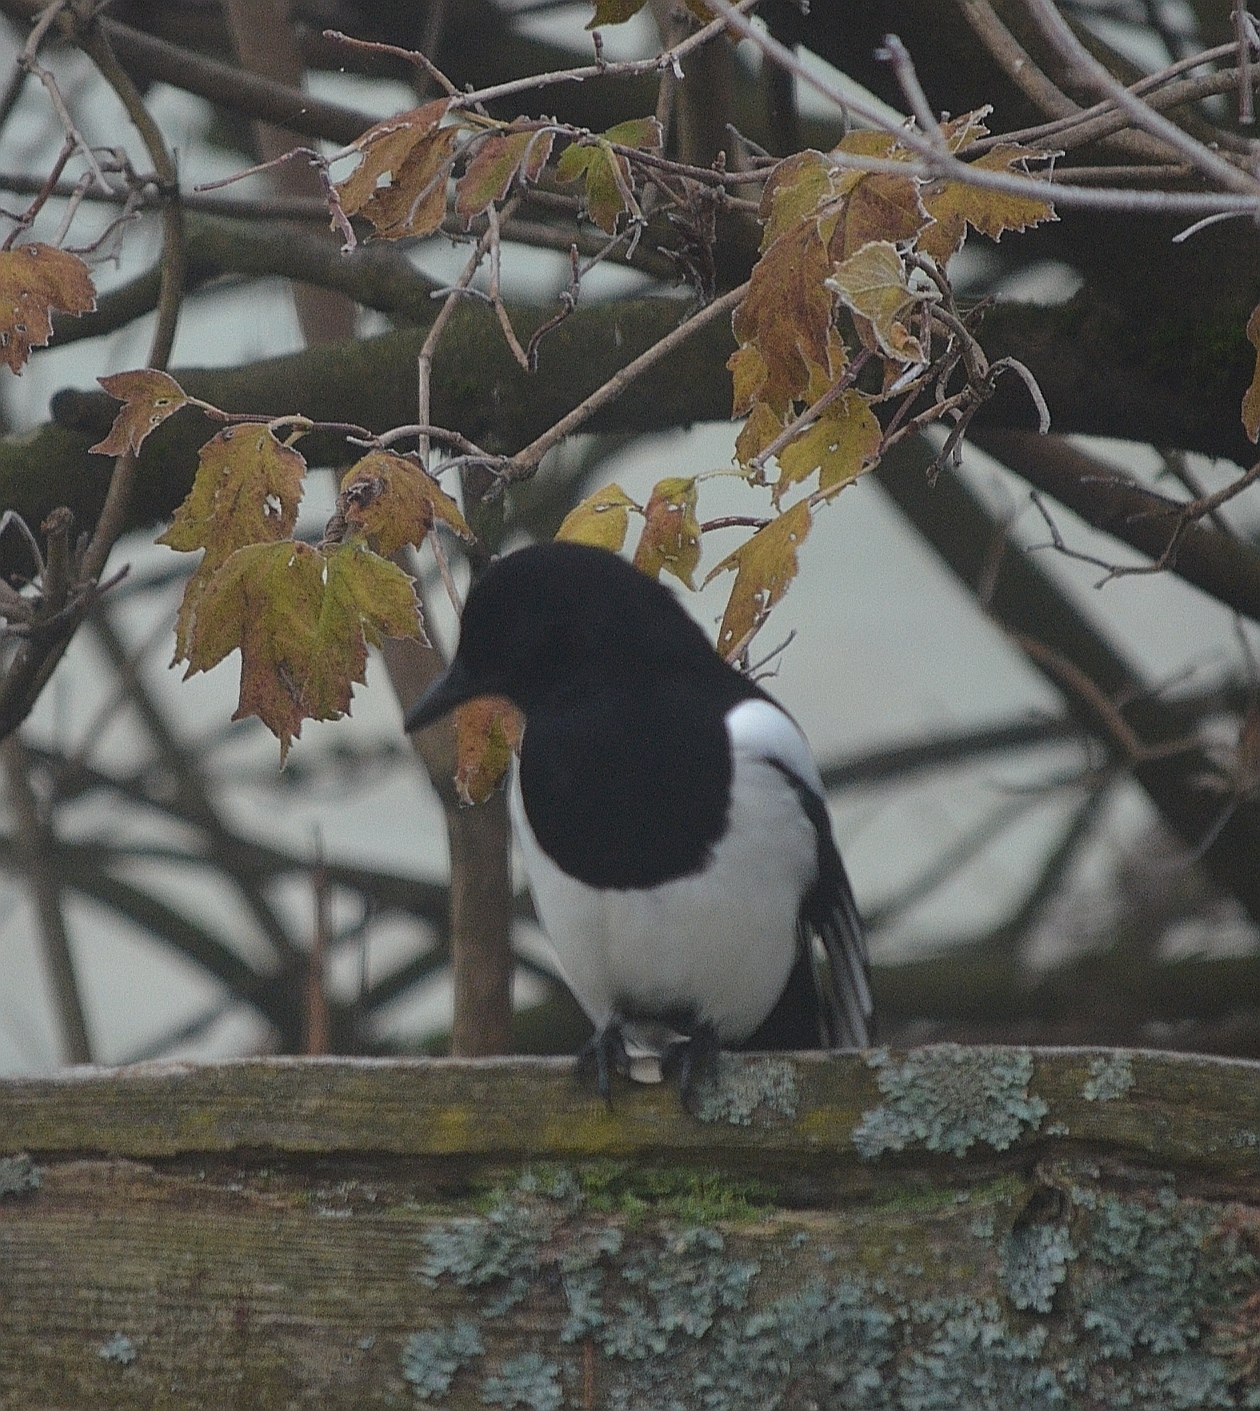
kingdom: Animalia
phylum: Chordata
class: Aves
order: Passeriformes
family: Corvidae
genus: Pica
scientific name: Pica pica
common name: Eurasian magpie
